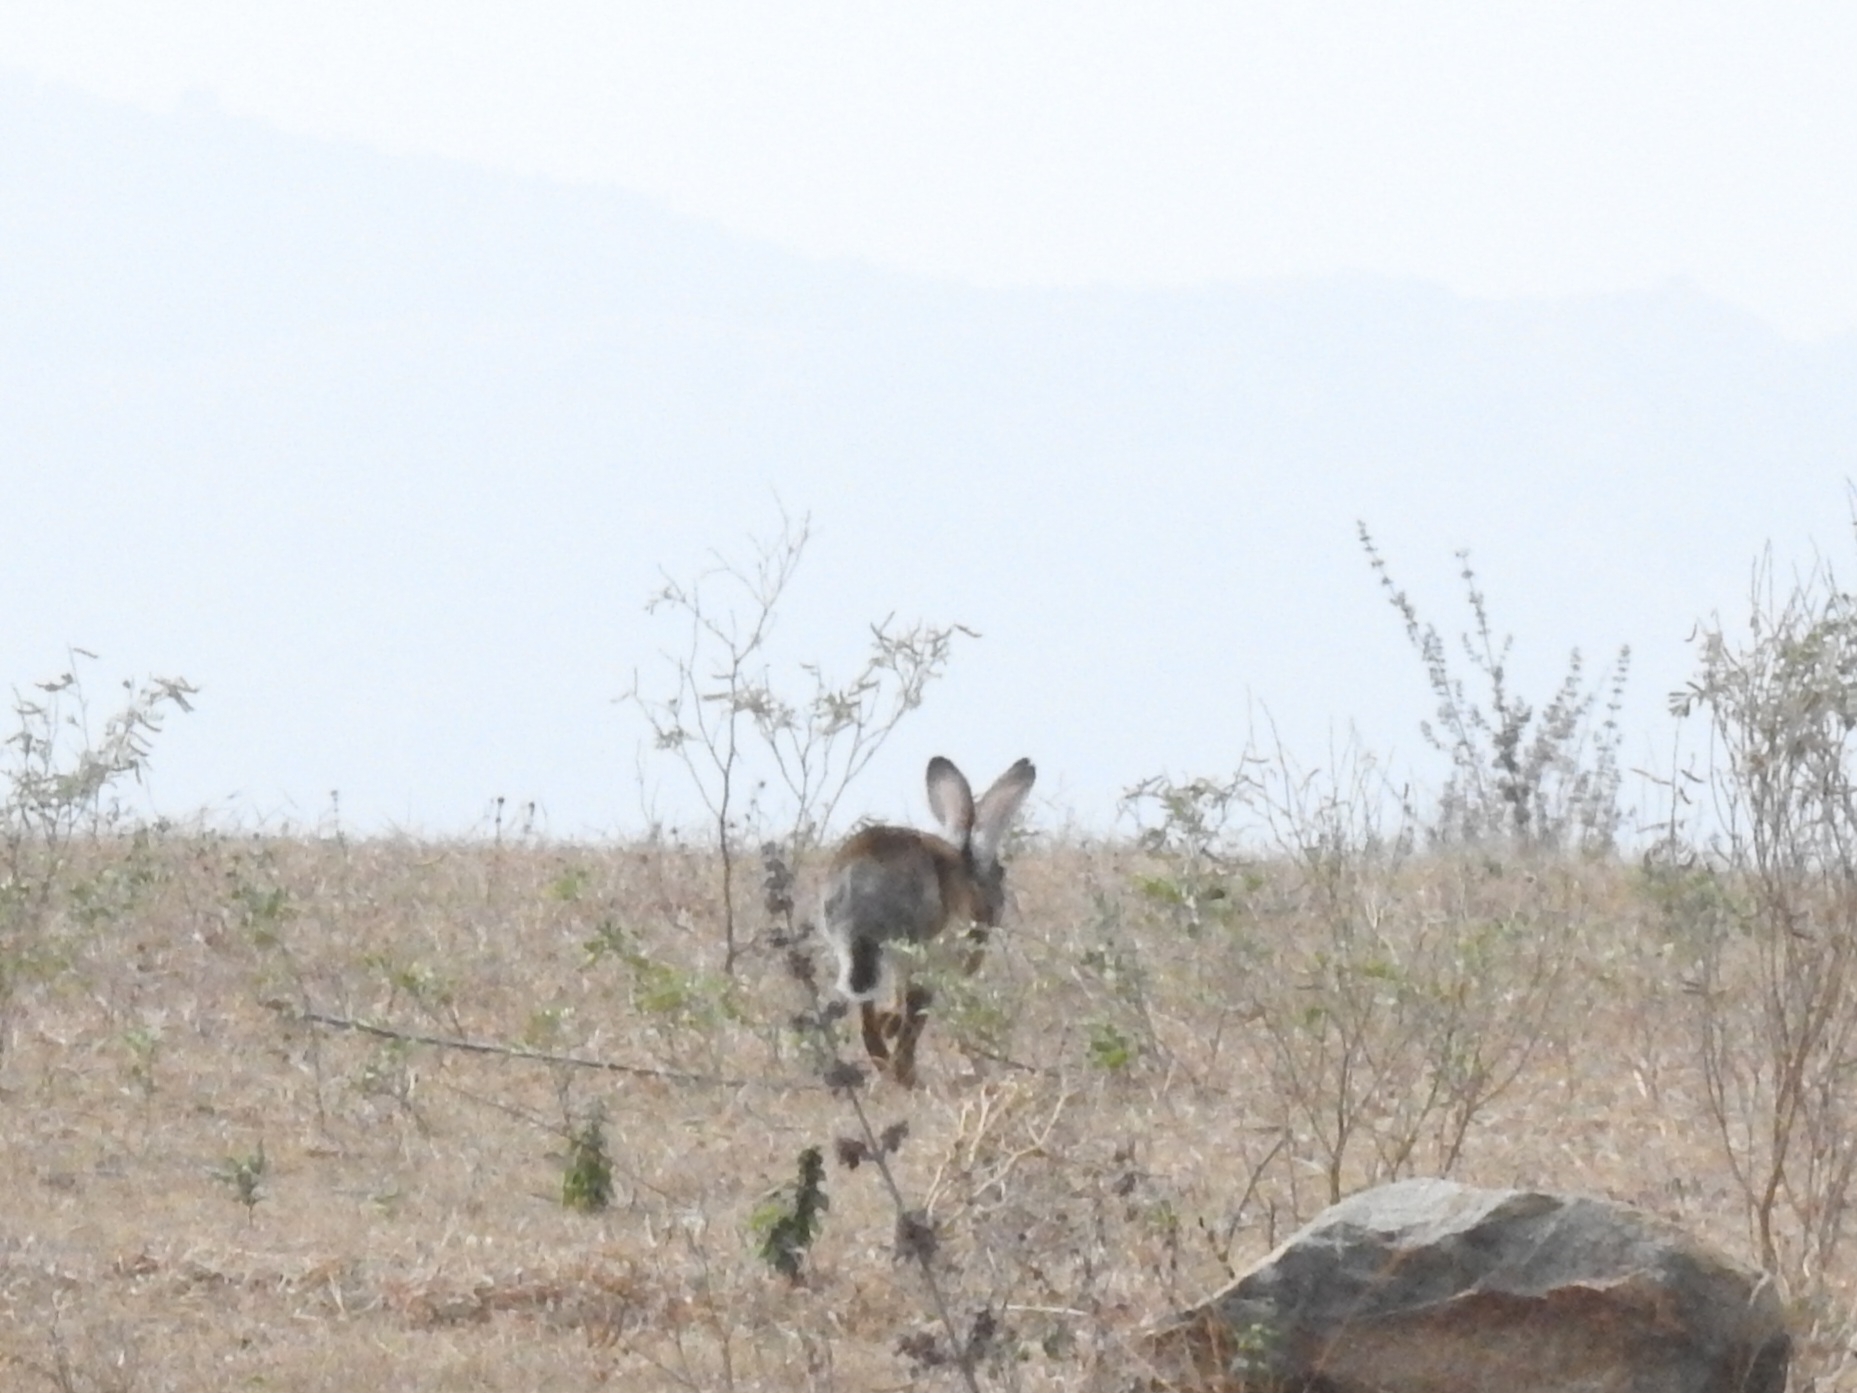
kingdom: Animalia
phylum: Chordata
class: Mammalia
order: Lagomorpha
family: Leporidae
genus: Lepus
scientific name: Lepus nigricollis
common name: Indian hare
